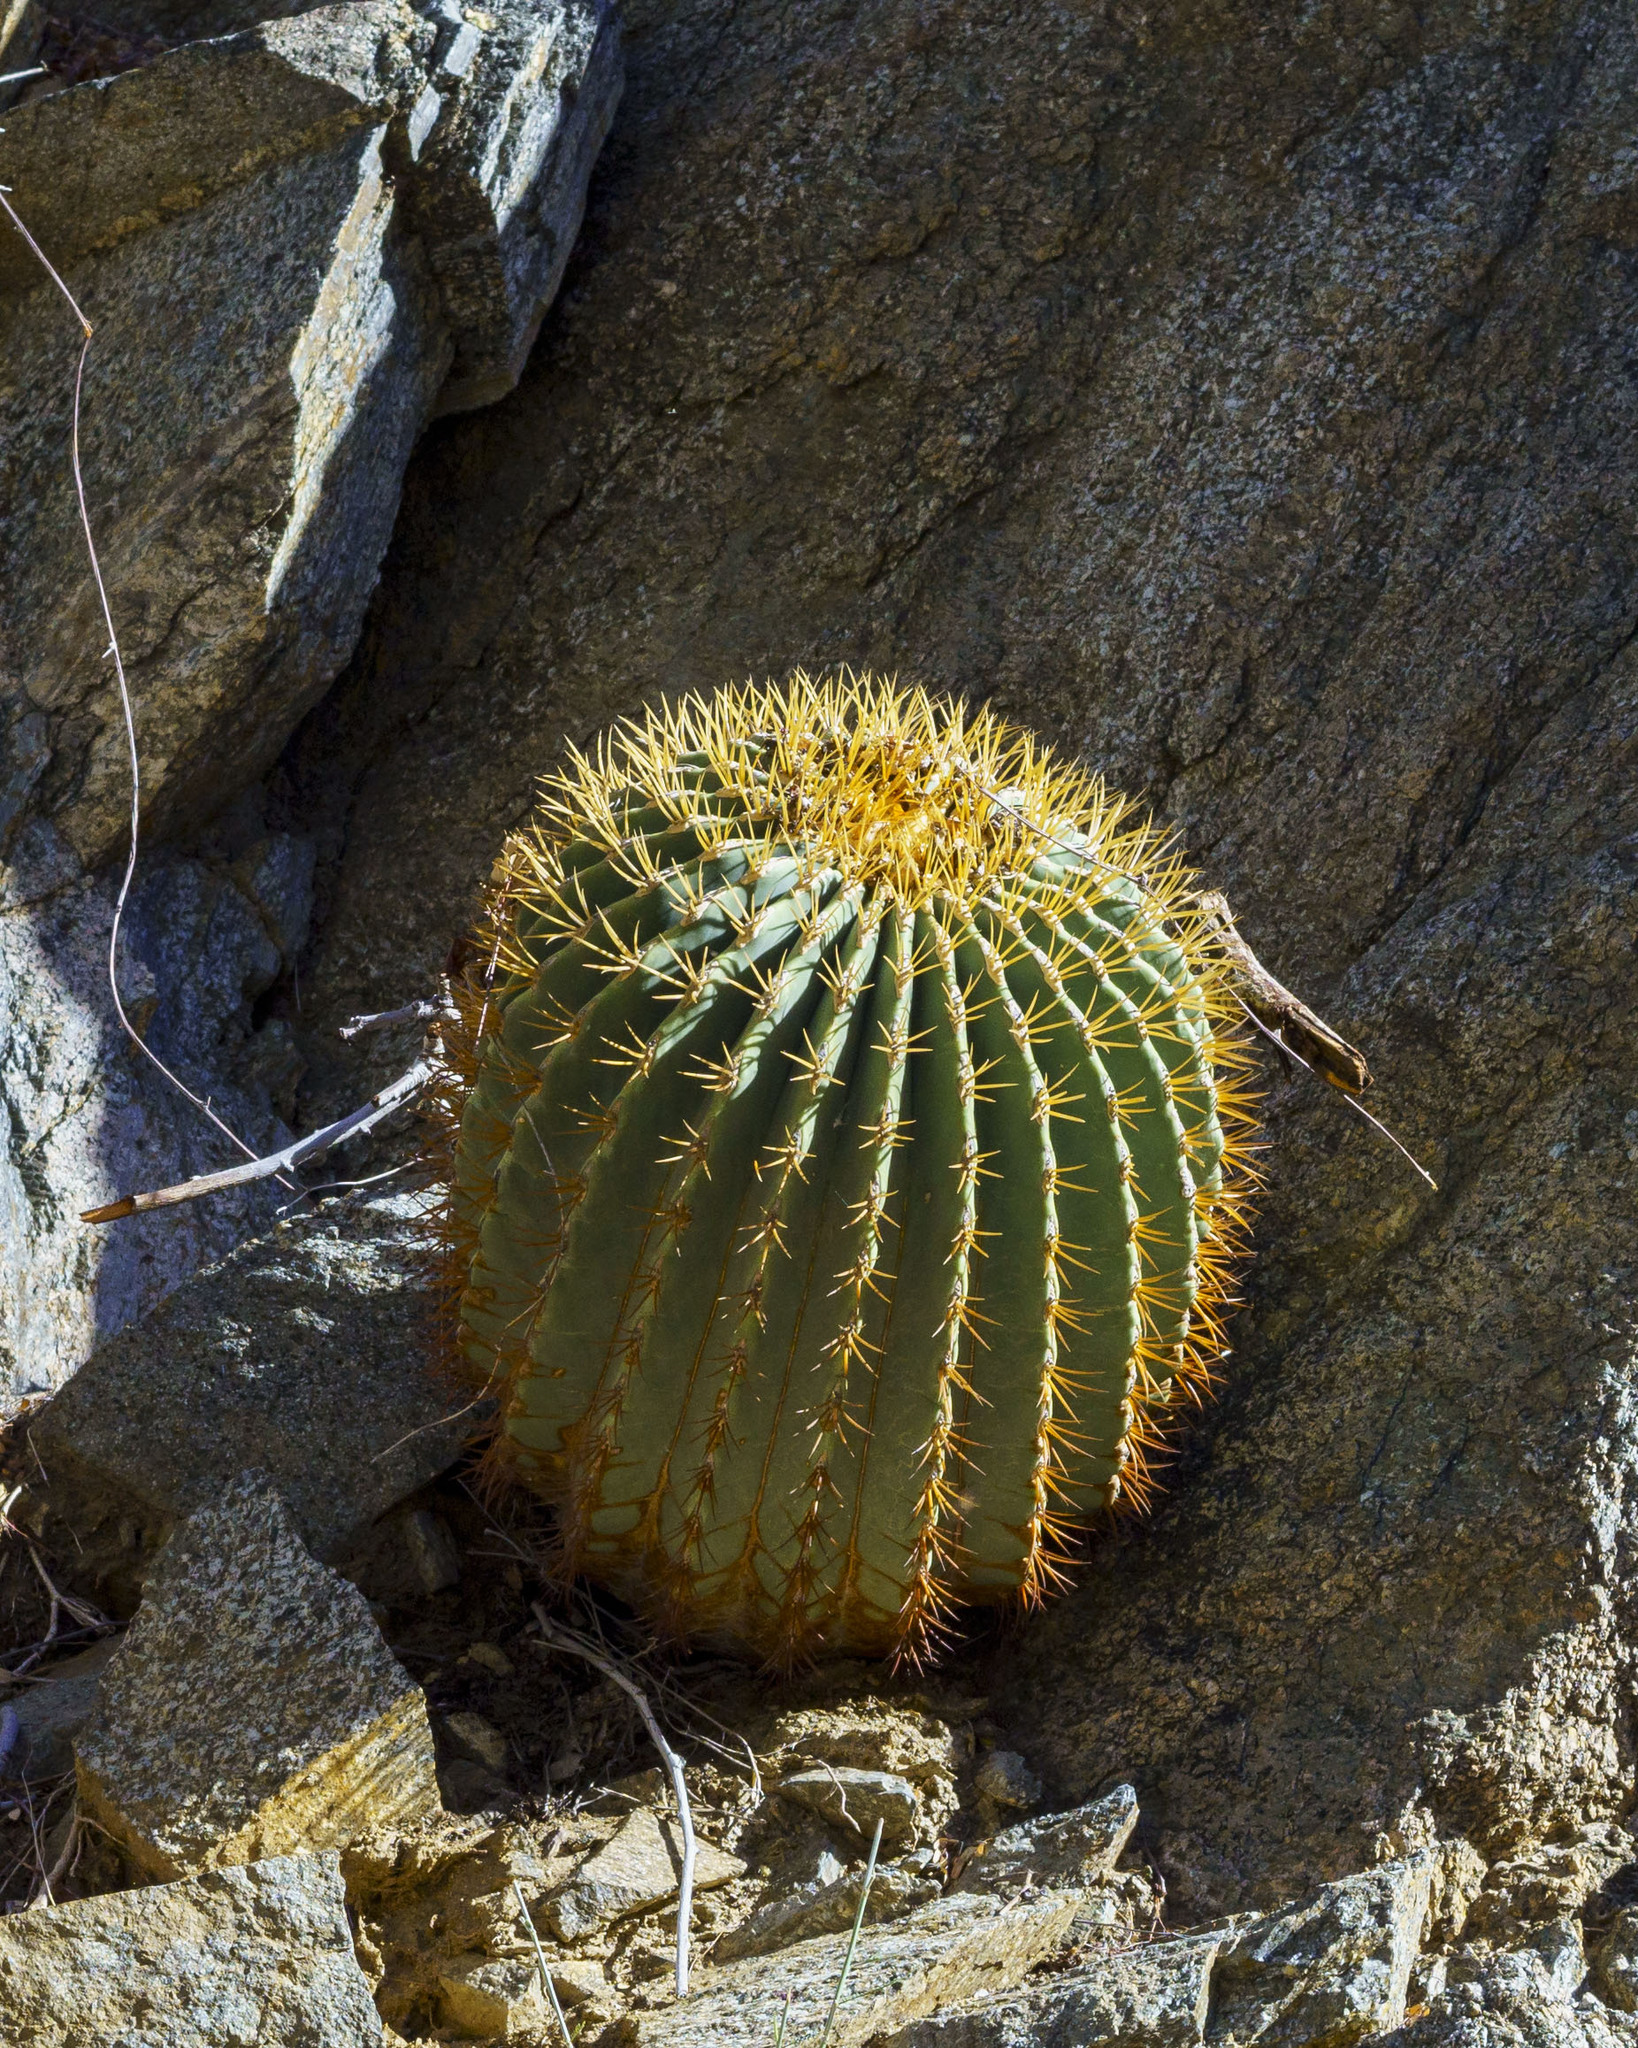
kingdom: Plantae
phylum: Tracheophyta
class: Magnoliopsida
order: Caryophyllales
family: Cactaceae
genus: Ferocactus
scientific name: Ferocactus diguetii
